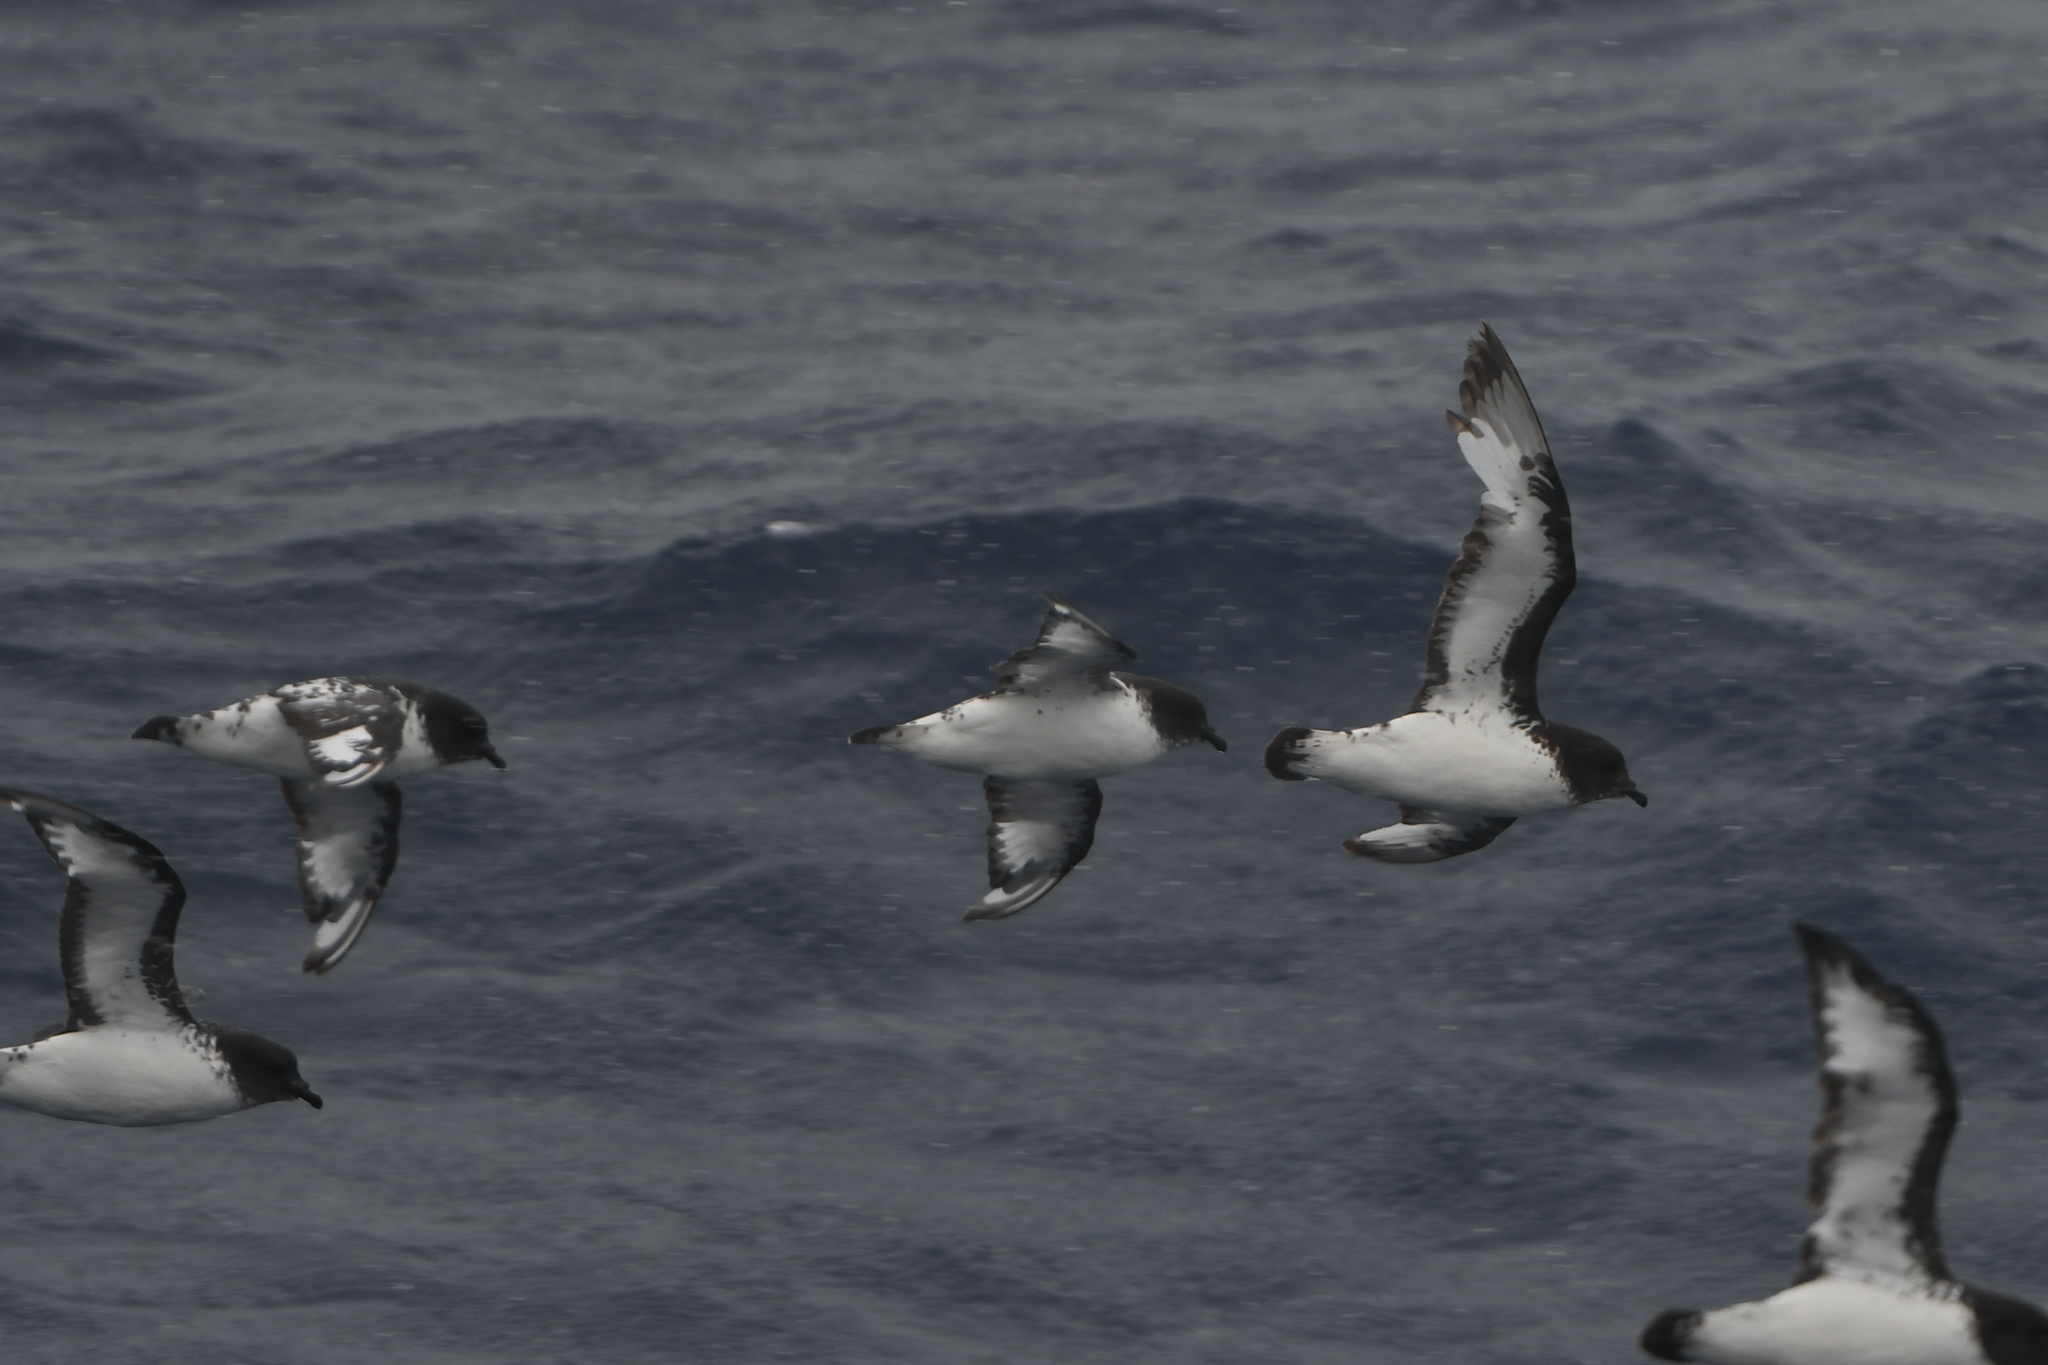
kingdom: Animalia
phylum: Chordata
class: Aves
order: Procellariiformes
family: Procellariidae
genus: Daption
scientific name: Daption capense
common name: Cape petrel
